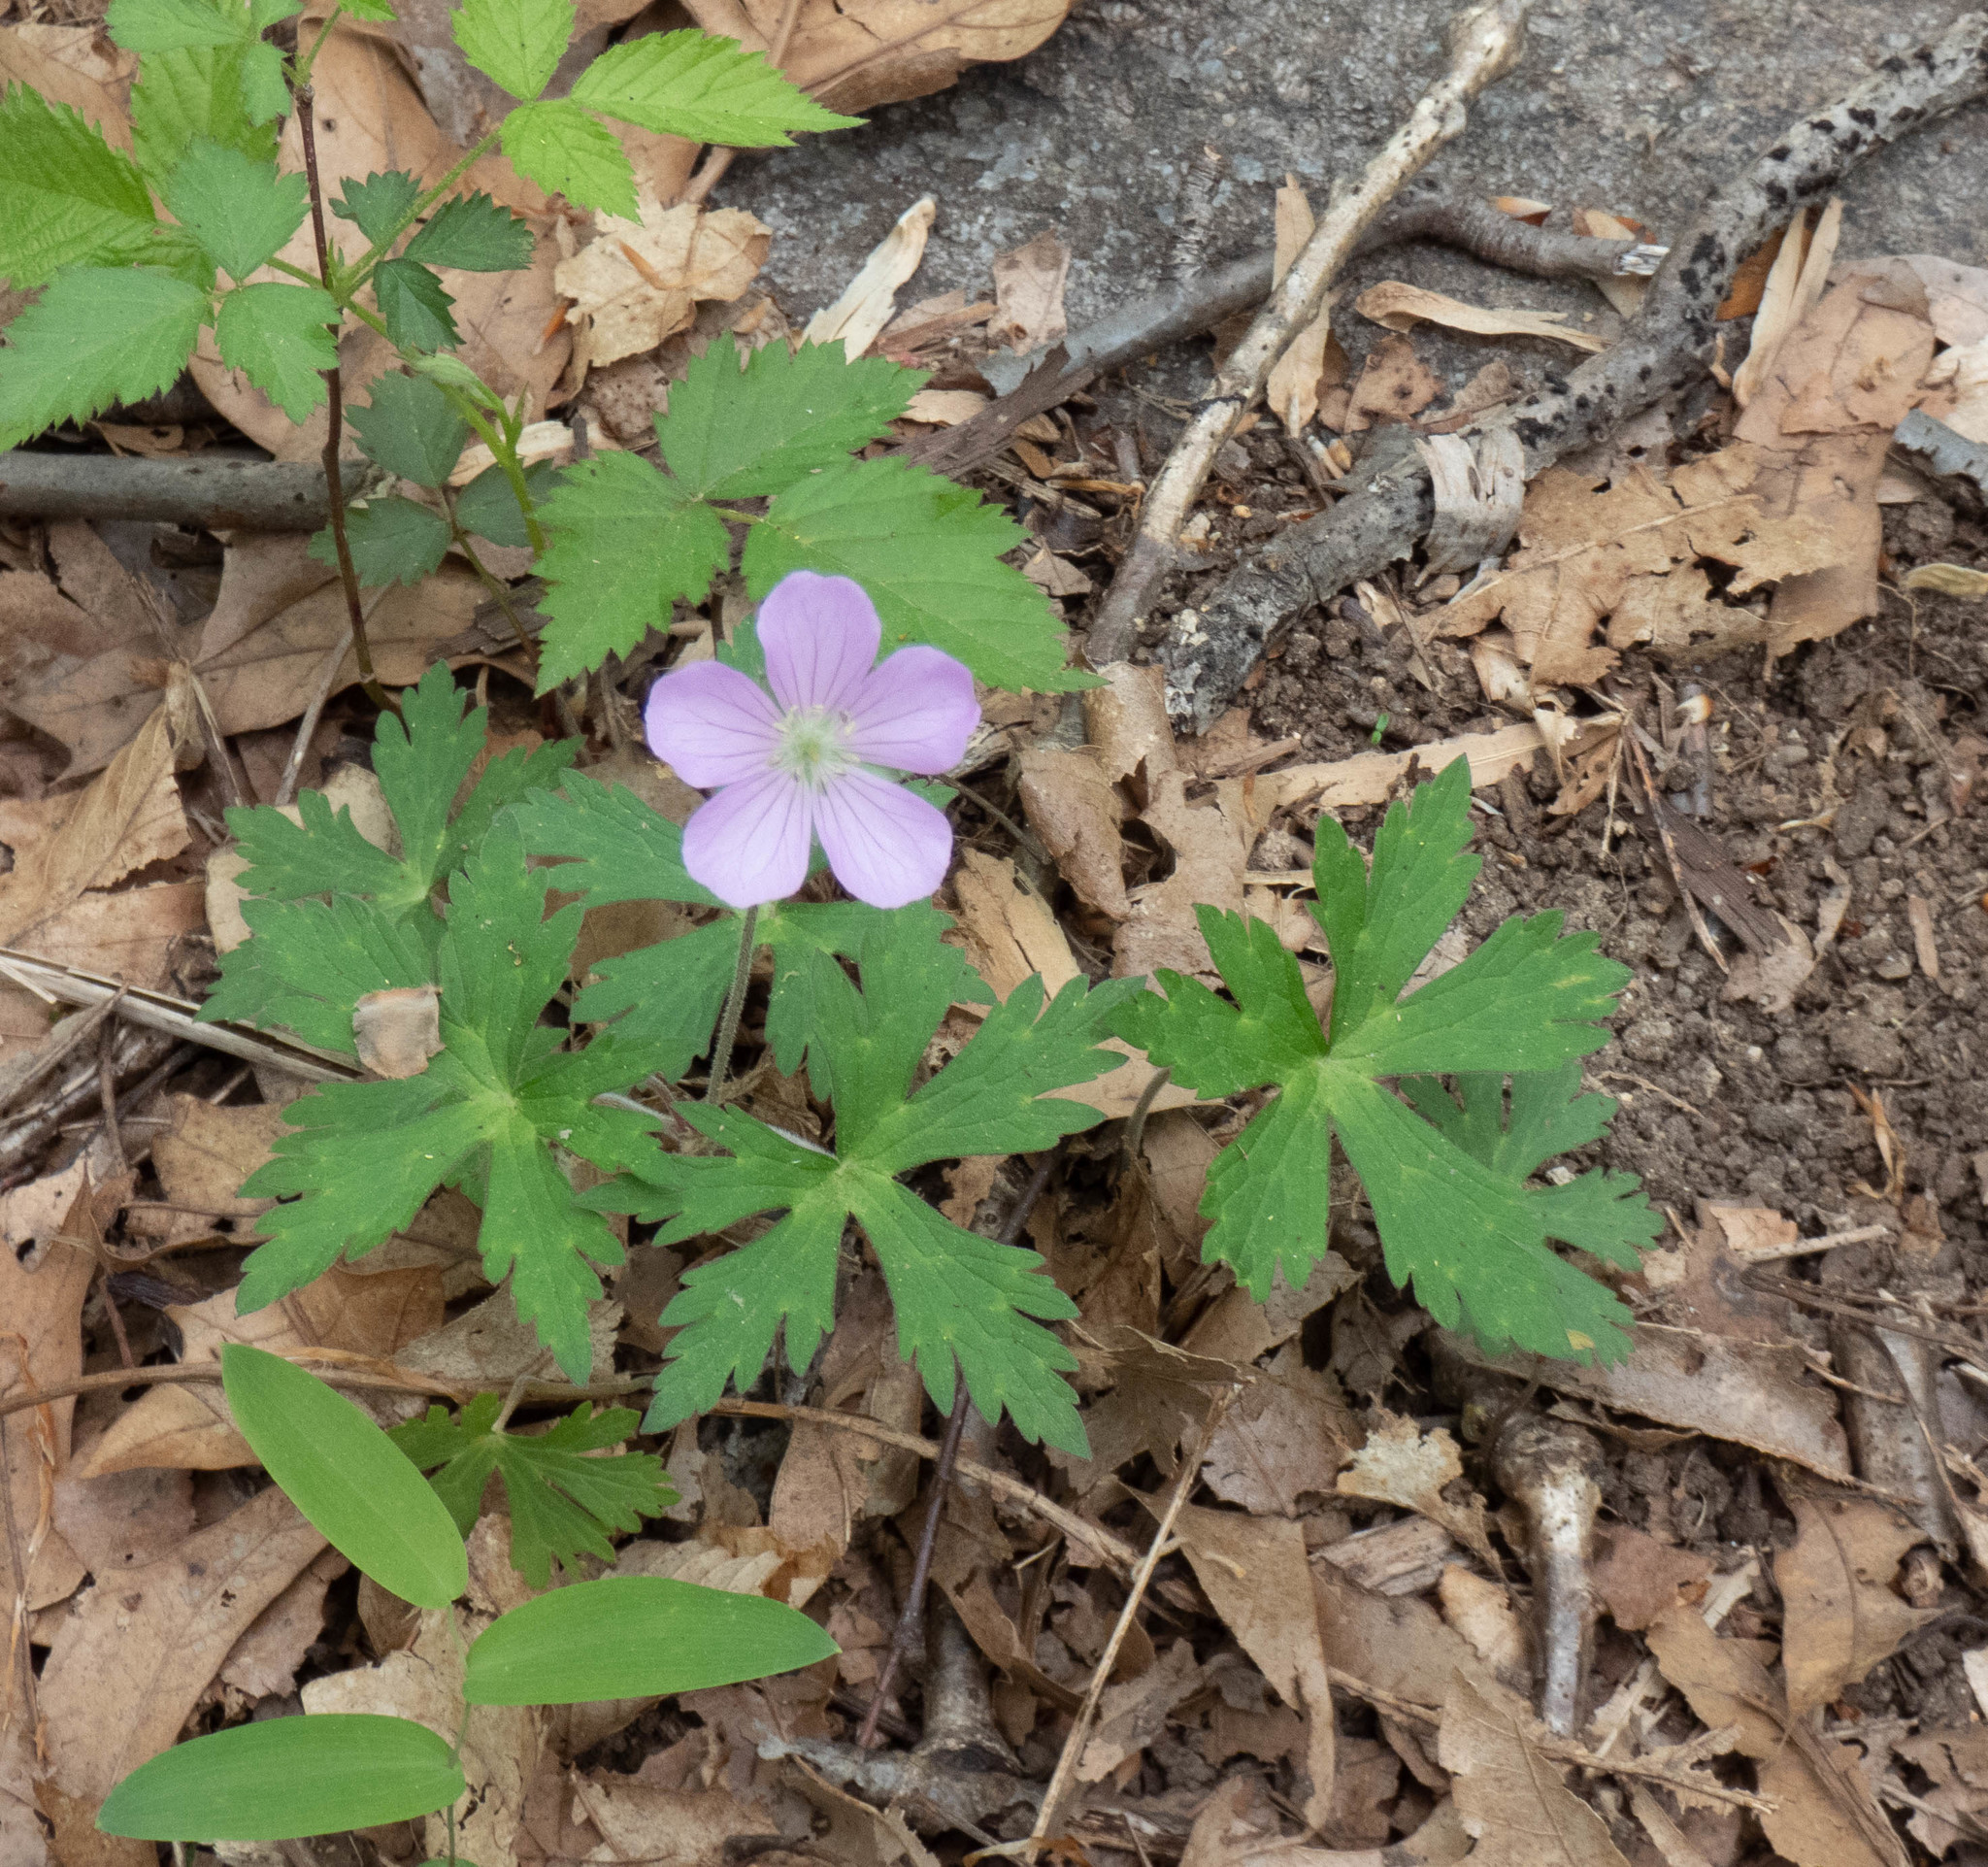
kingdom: Plantae
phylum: Tracheophyta
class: Magnoliopsida
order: Geraniales
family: Geraniaceae
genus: Geranium
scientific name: Geranium maculatum
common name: Spotted geranium
